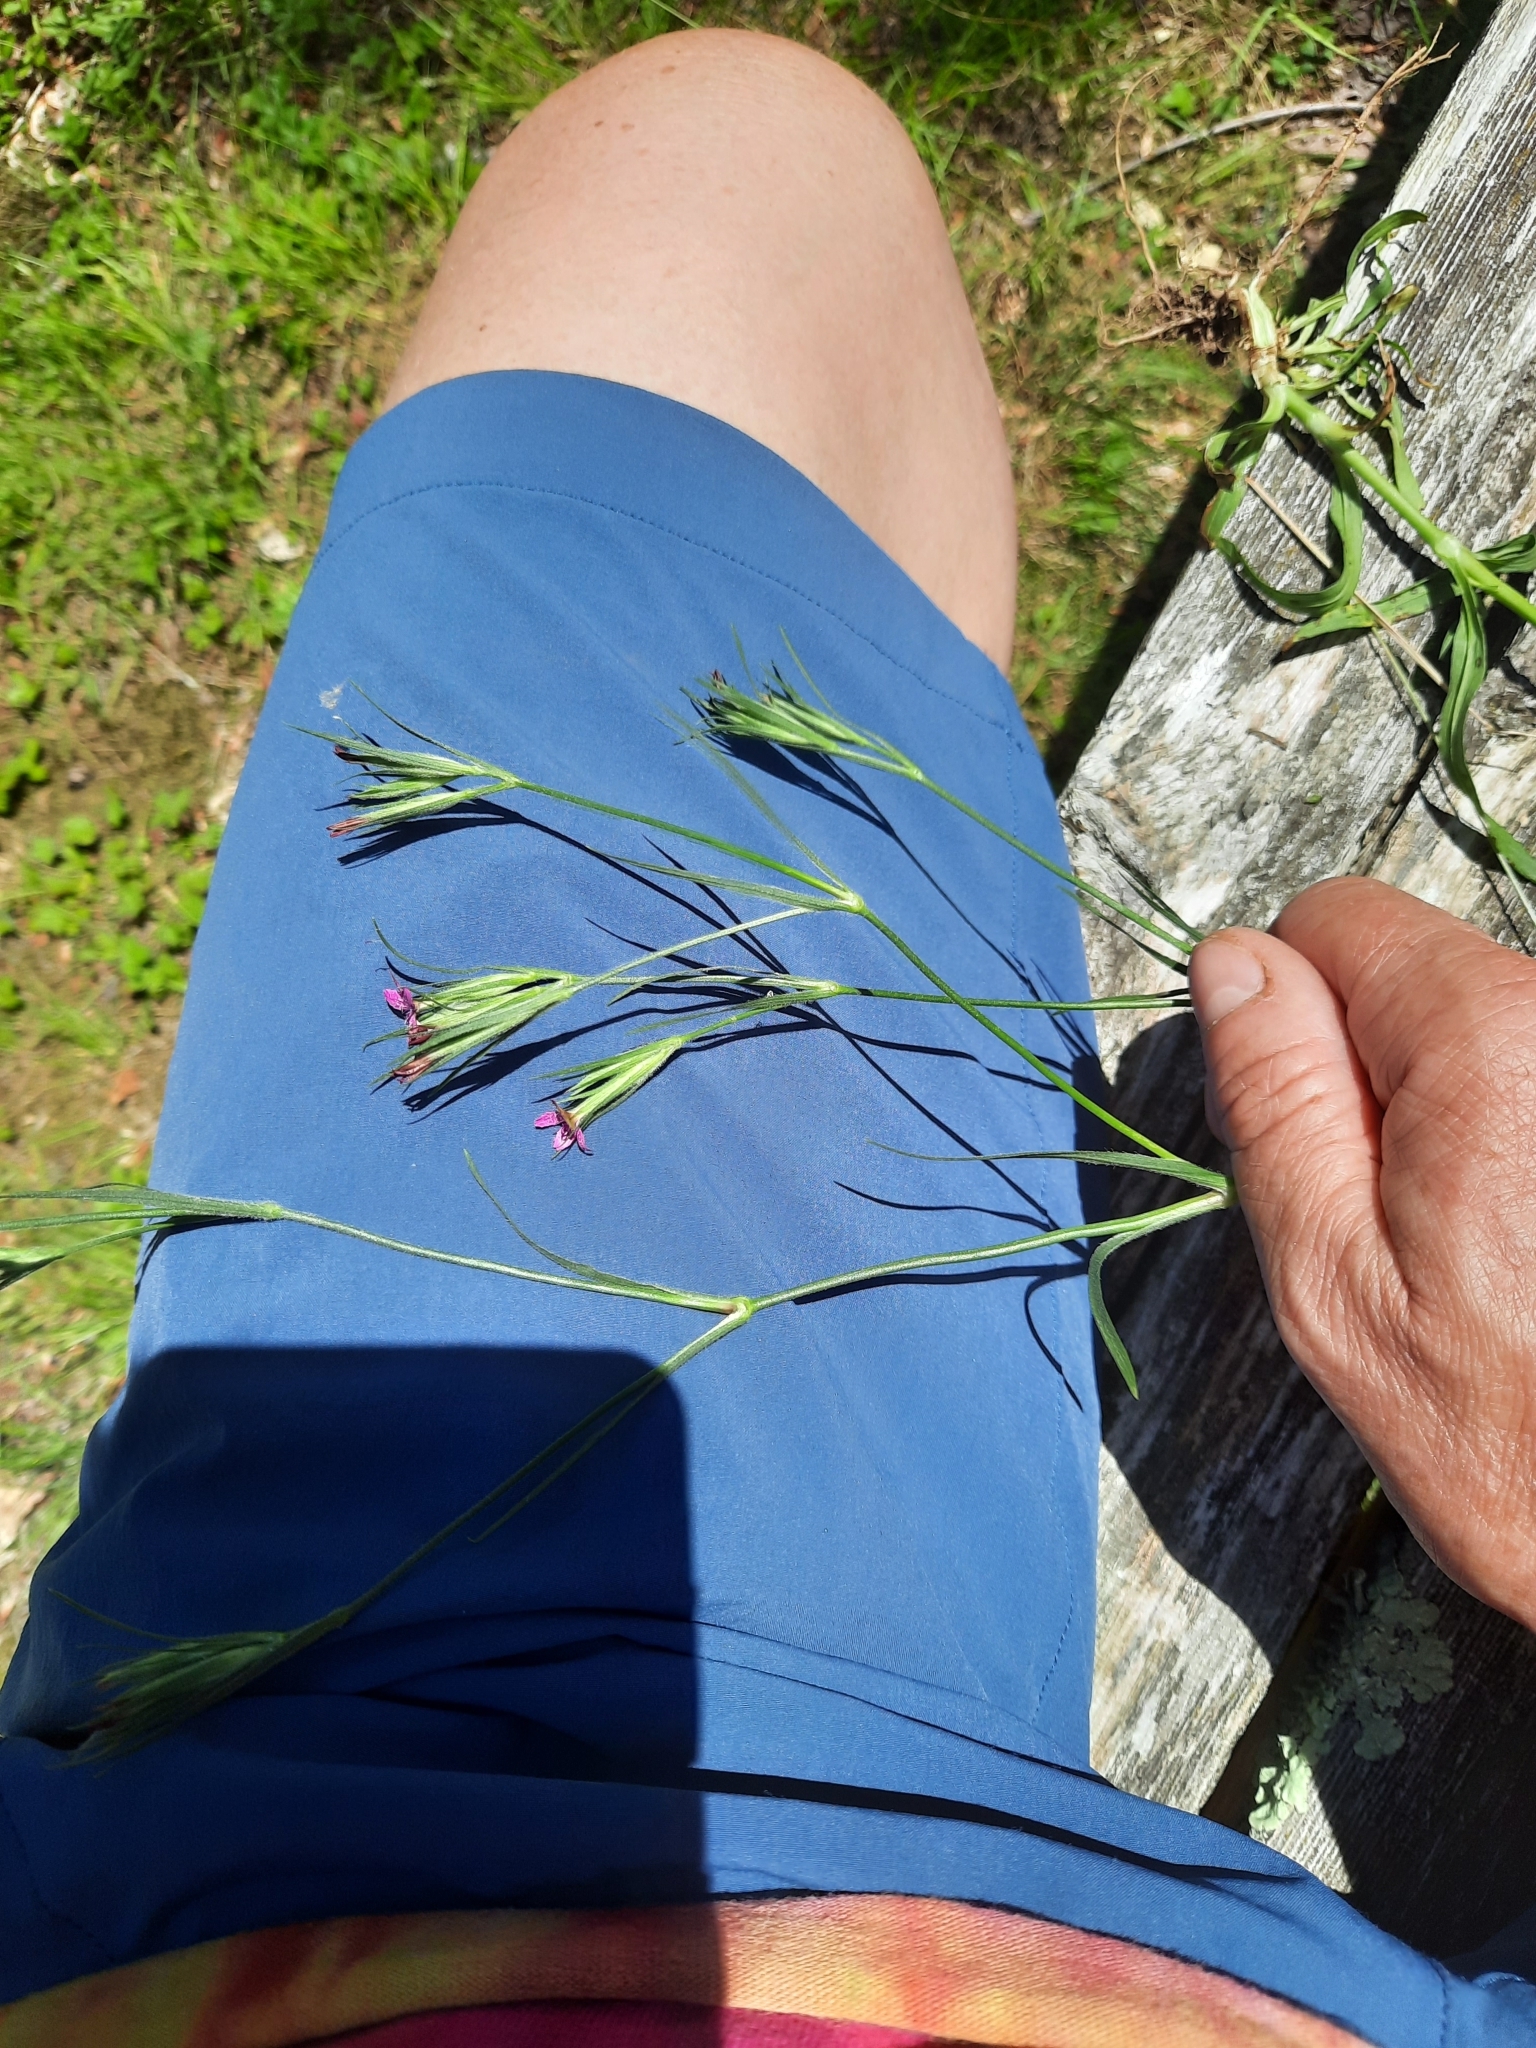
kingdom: Plantae
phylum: Tracheophyta
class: Magnoliopsida
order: Caryophyllales
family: Caryophyllaceae
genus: Dianthus
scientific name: Dianthus armeria
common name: Deptford pink
